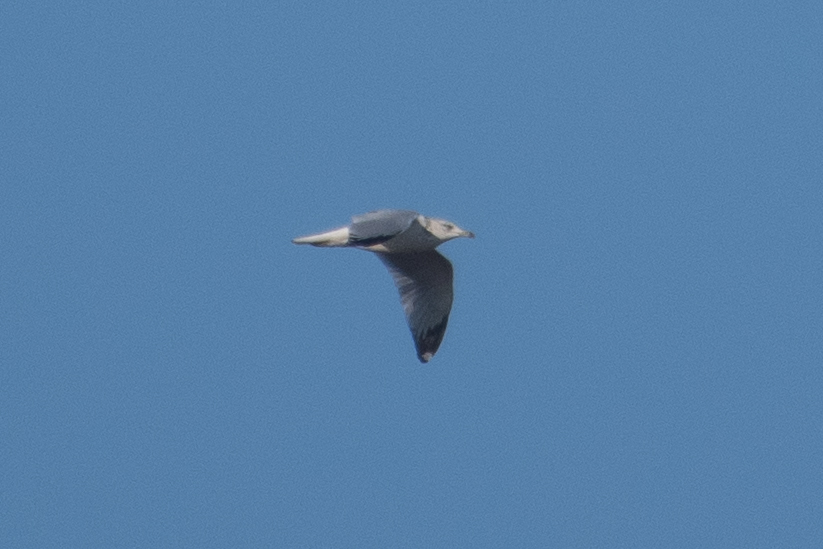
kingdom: Animalia
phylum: Chordata
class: Aves
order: Charadriiformes
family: Laridae
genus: Larus
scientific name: Larus californicus
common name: California gull
